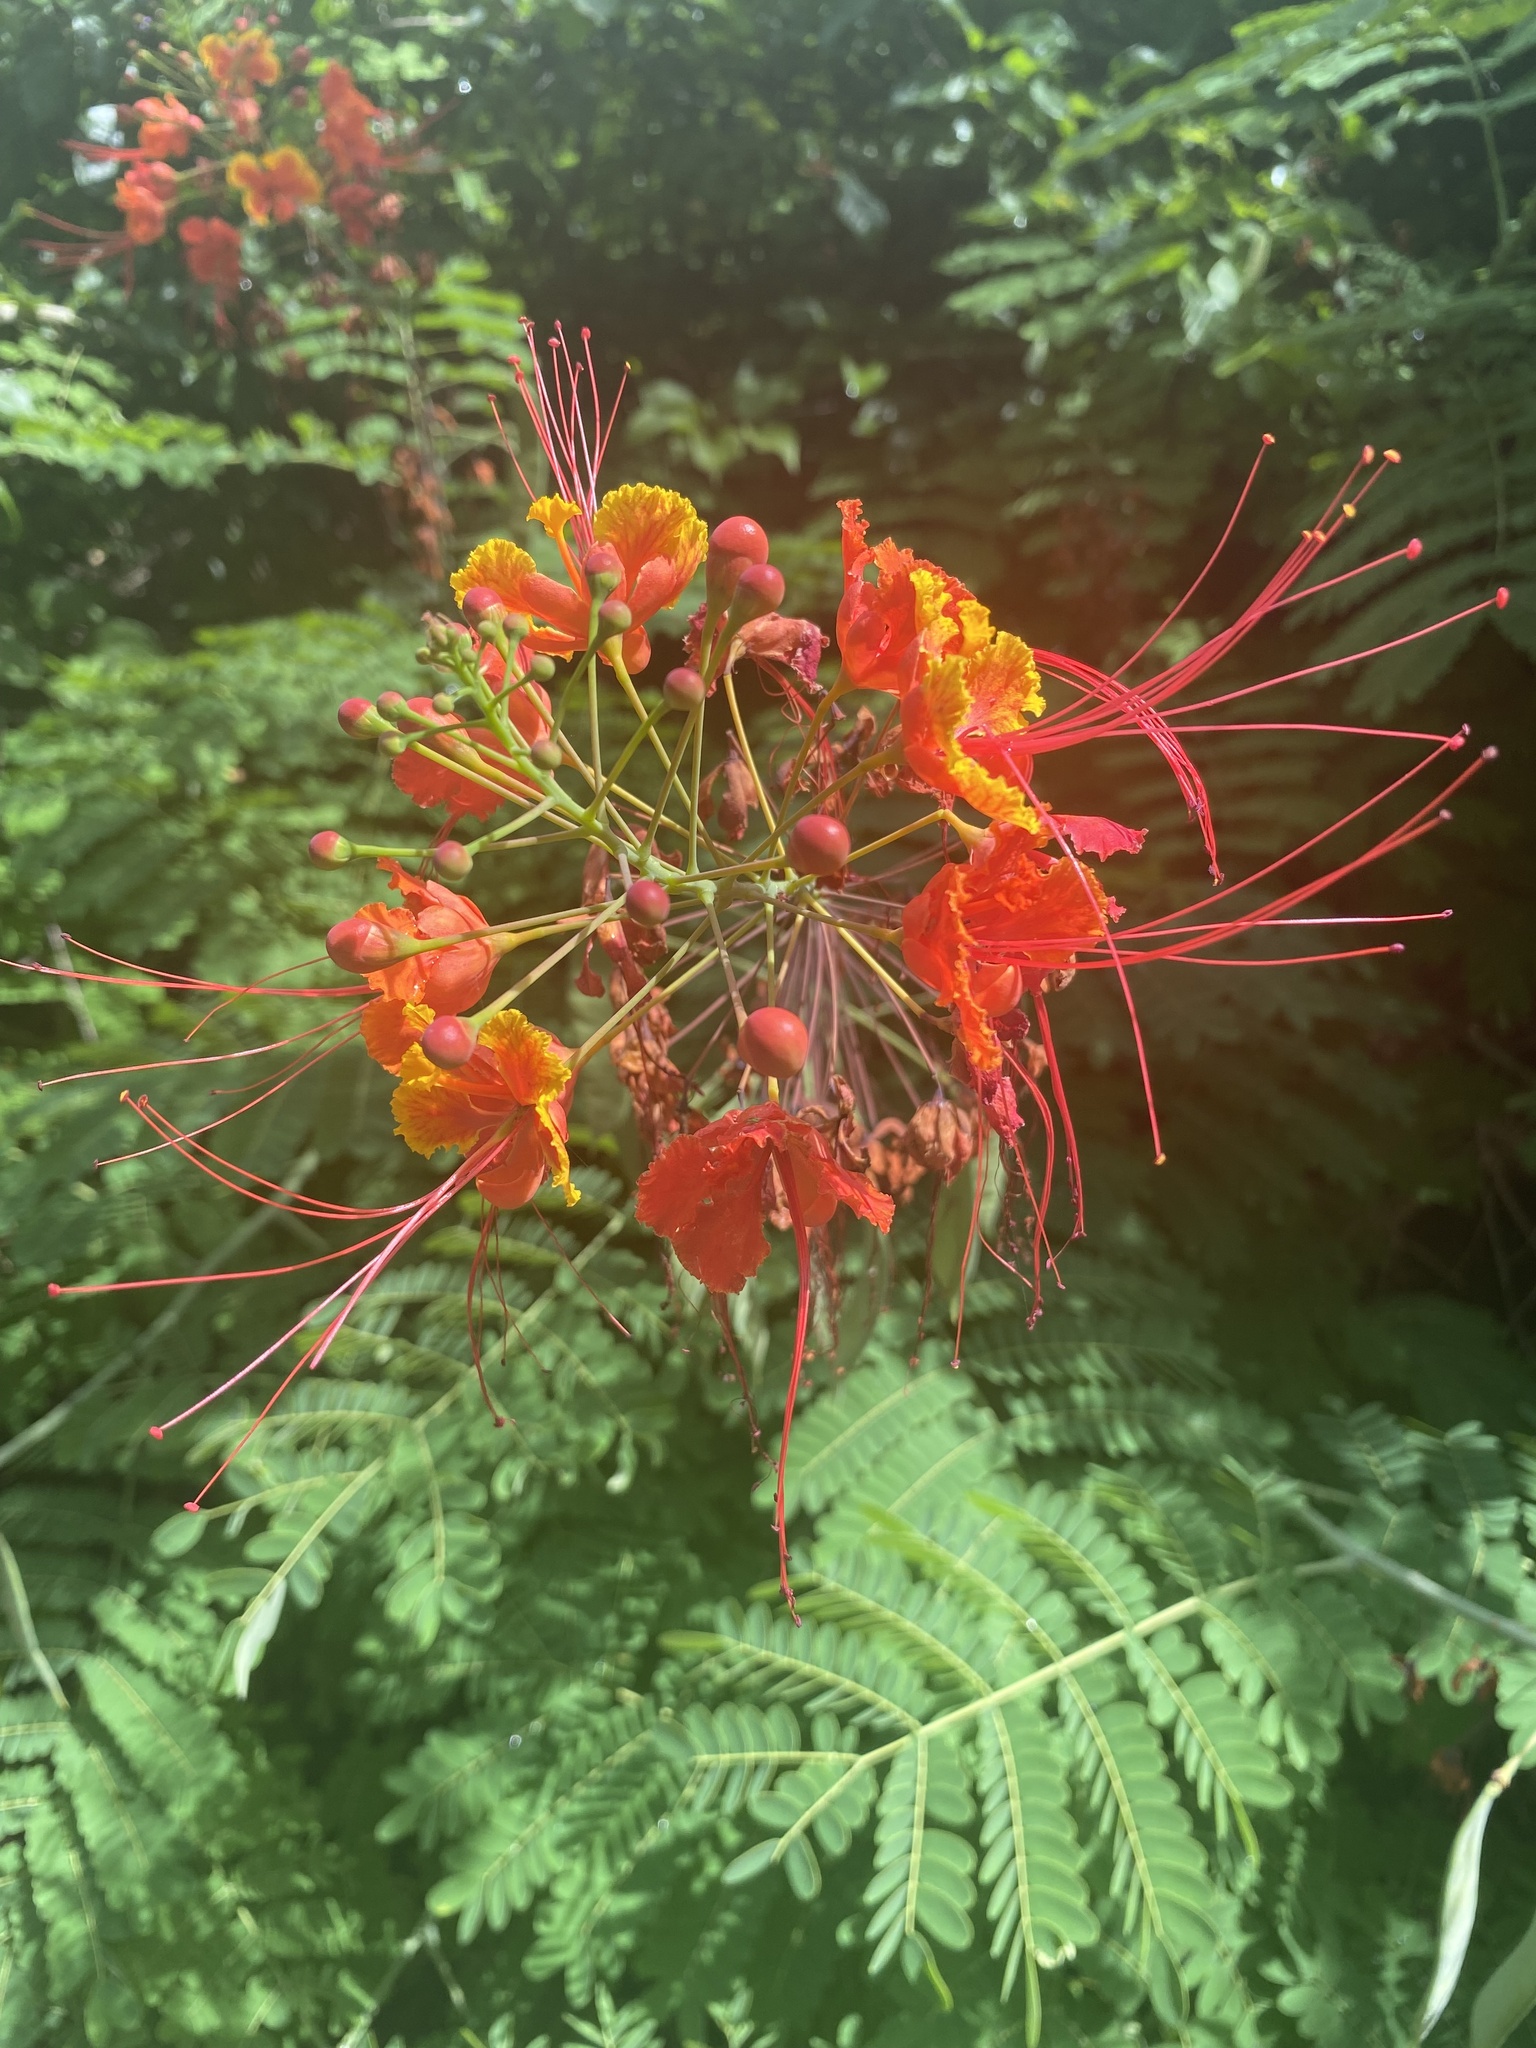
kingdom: Plantae
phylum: Tracheophyta
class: Magnoliopsida
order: Fabales
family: Fabaceae
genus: Caesalpinia
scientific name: Caesalpinia pulcherrima
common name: Pride-of-barbados
